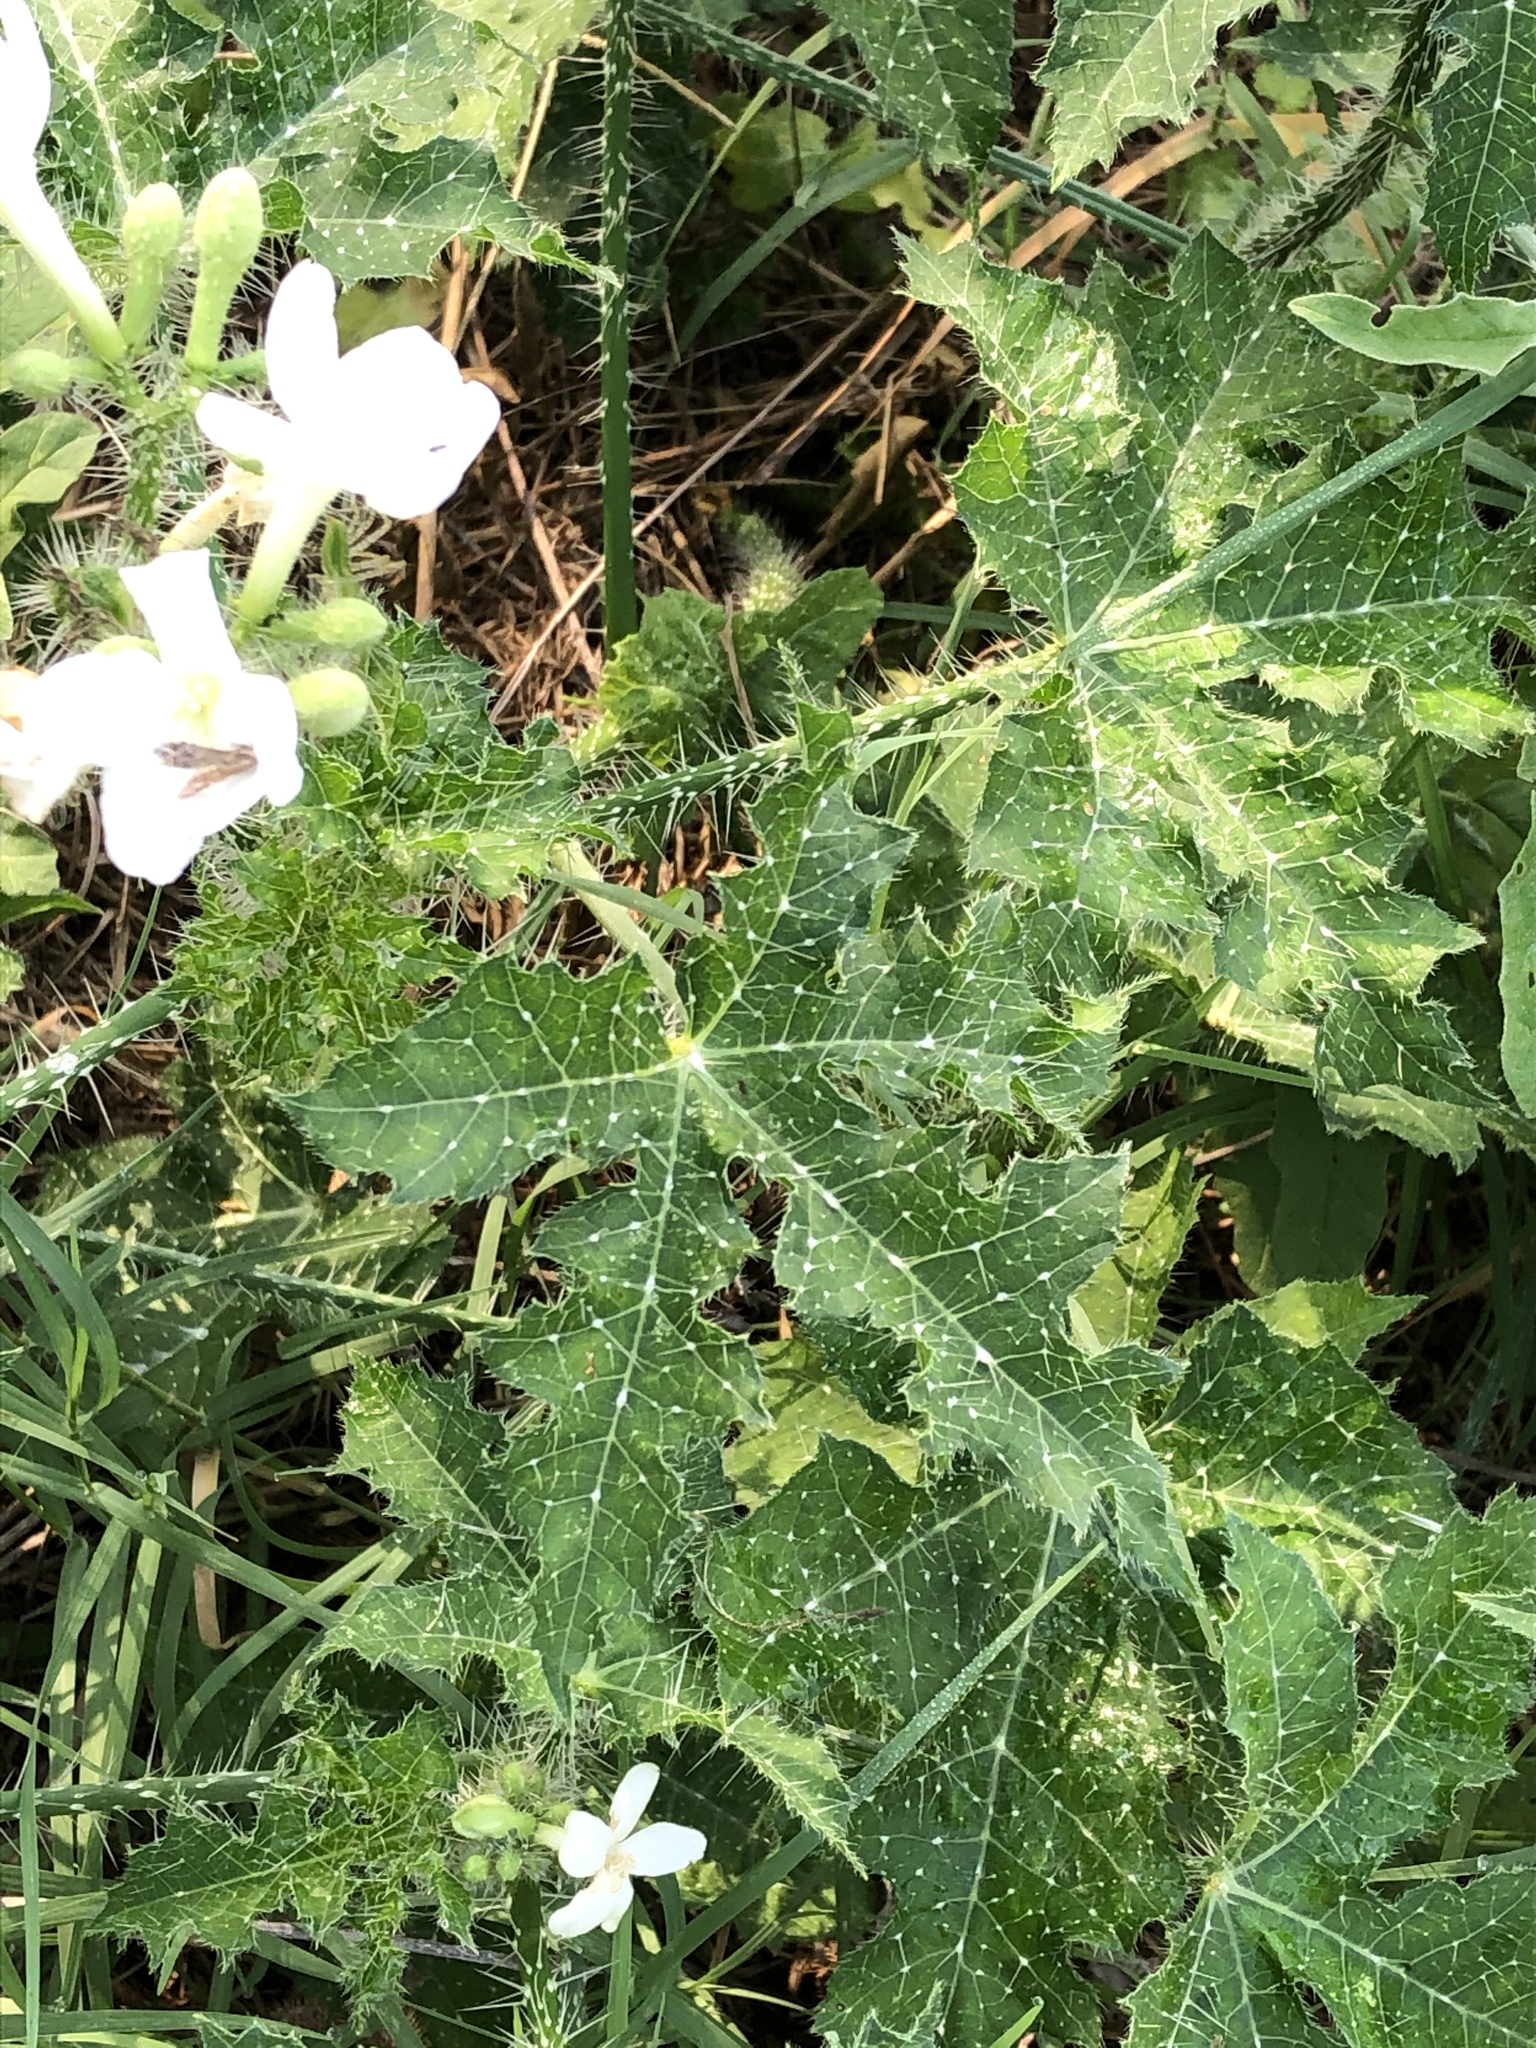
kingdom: Plantae
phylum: Tracheophyta
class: Magnoliopsida
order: Malpighiales
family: Euphorbiaceae
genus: Cnidoscolus
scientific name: Cnidoscolus texanus
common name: Texas bull-nettle
